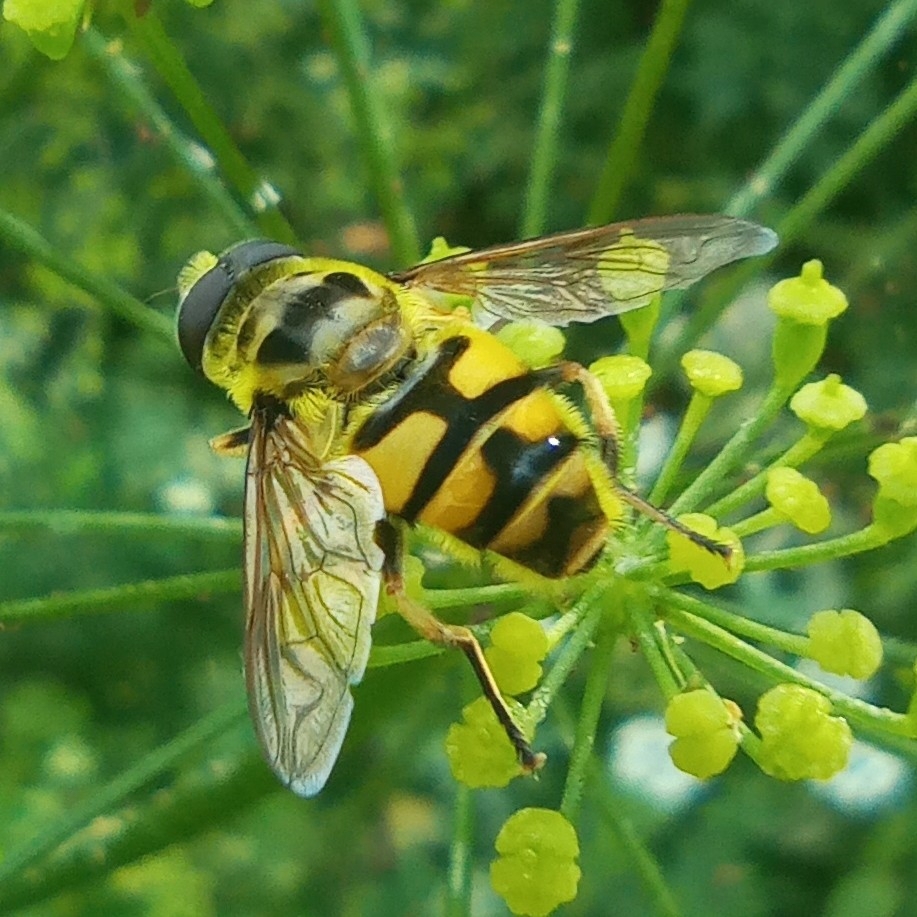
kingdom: Animalia
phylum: Arthropoda
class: Insecta
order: Diptera
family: Syrphidae
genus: Myathropa
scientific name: Myathropa florea
